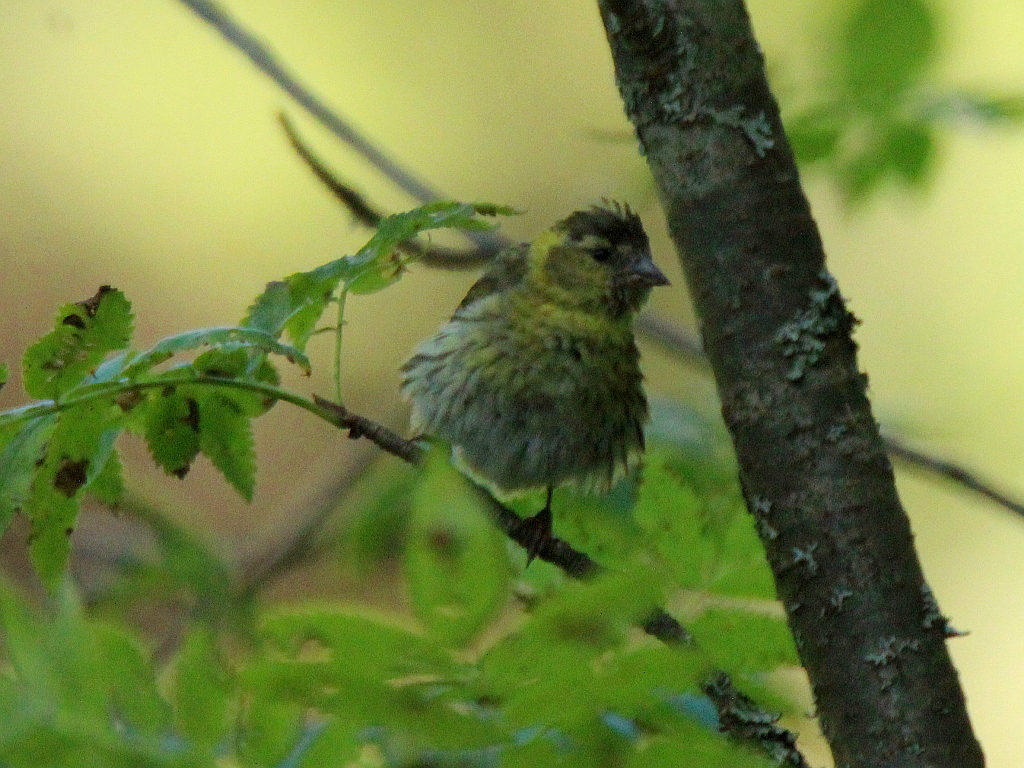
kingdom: Animalia
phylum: Chordata
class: Aves
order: Passeriformes
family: Fringillidae
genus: Spinus
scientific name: Spinus spinus
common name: Eurasian siskin
